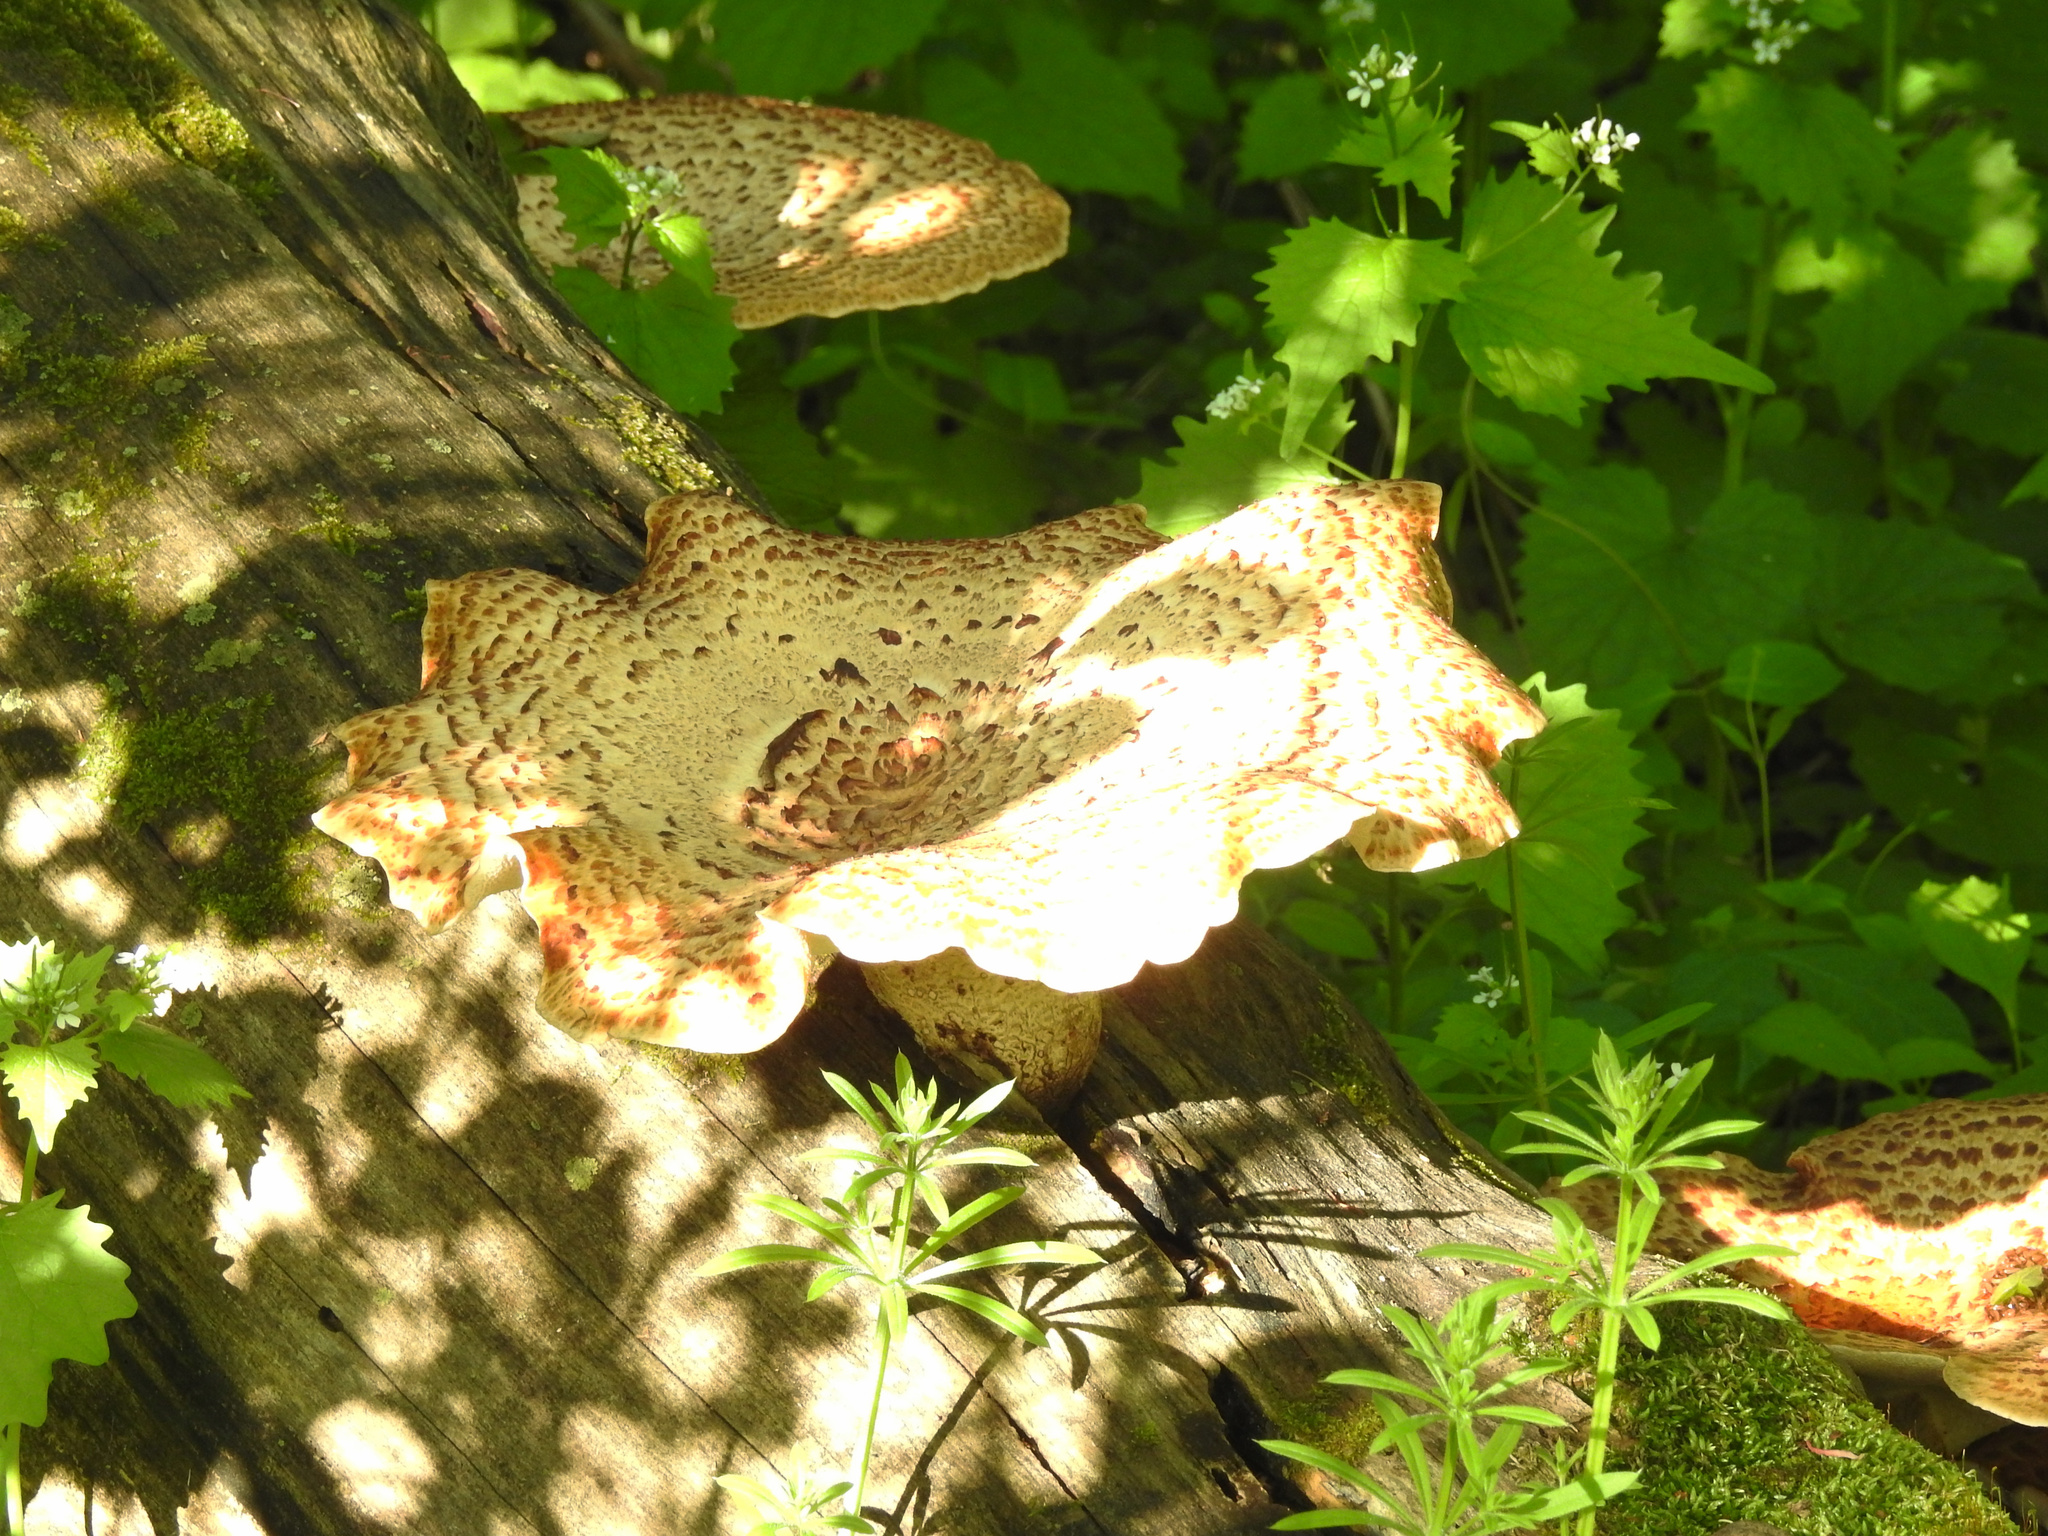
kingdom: Fungi
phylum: Basidiomycota
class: Agaricomycetes
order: Polyporales
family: Polyporaceae
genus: Cerioporus
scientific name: Cerioporus squamosus
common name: Dryad's saddle
